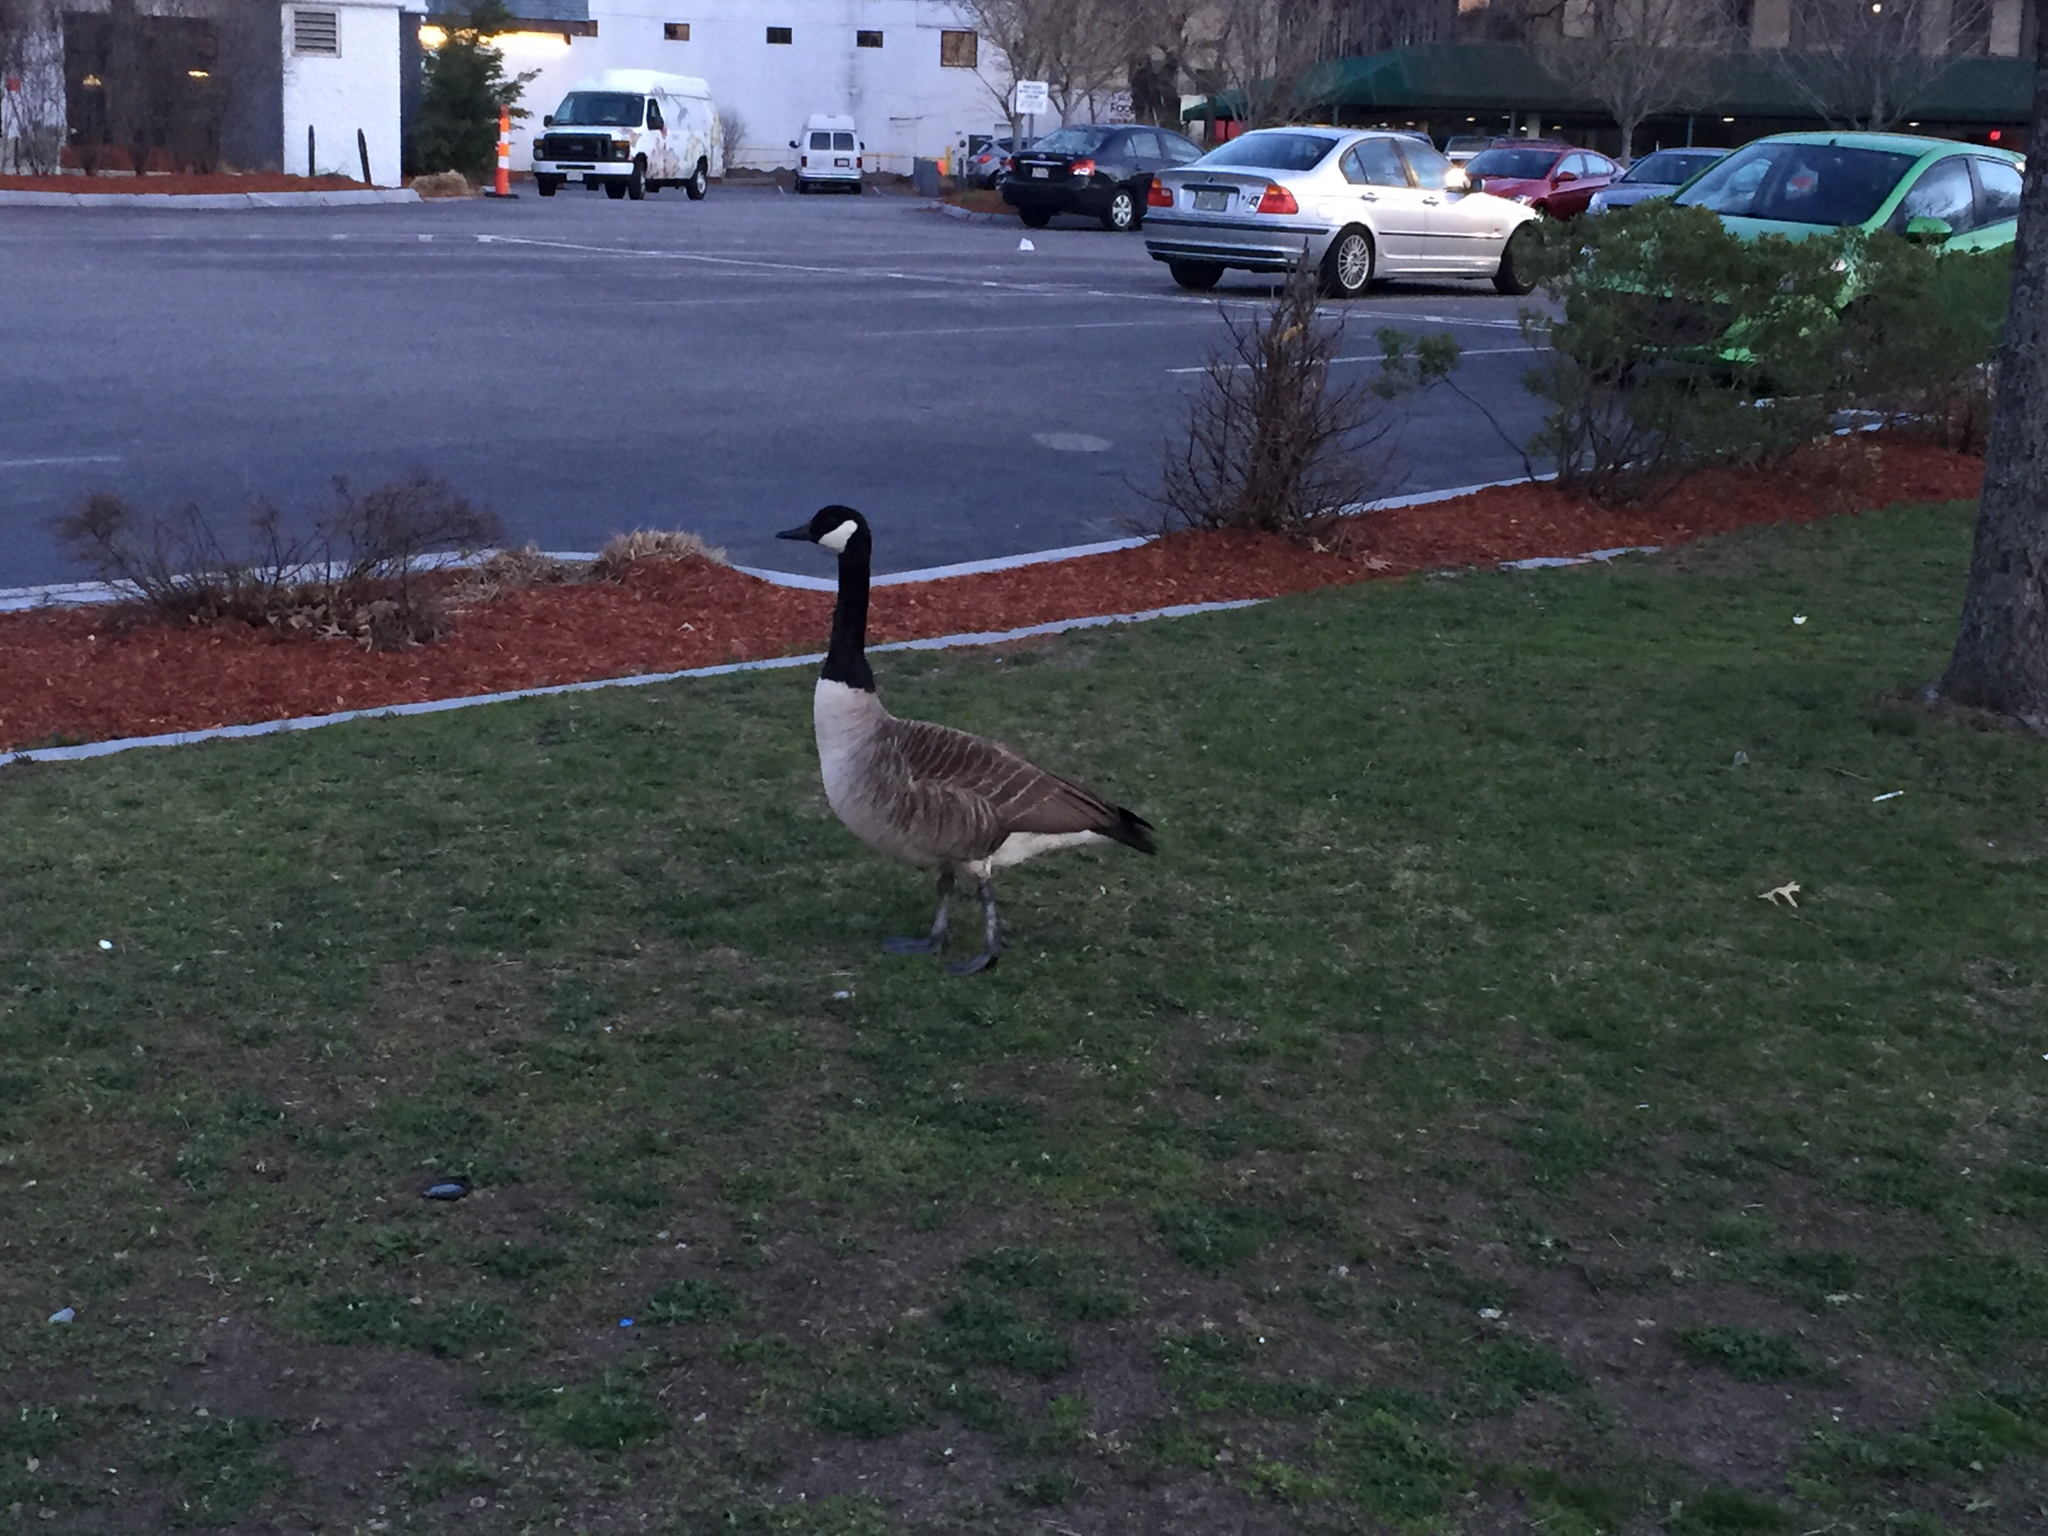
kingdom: Animalia
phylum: Chordata
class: Aves
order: Anseriformes
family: Anatidae
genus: Branta
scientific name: Branta canadensis
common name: Canada goose
